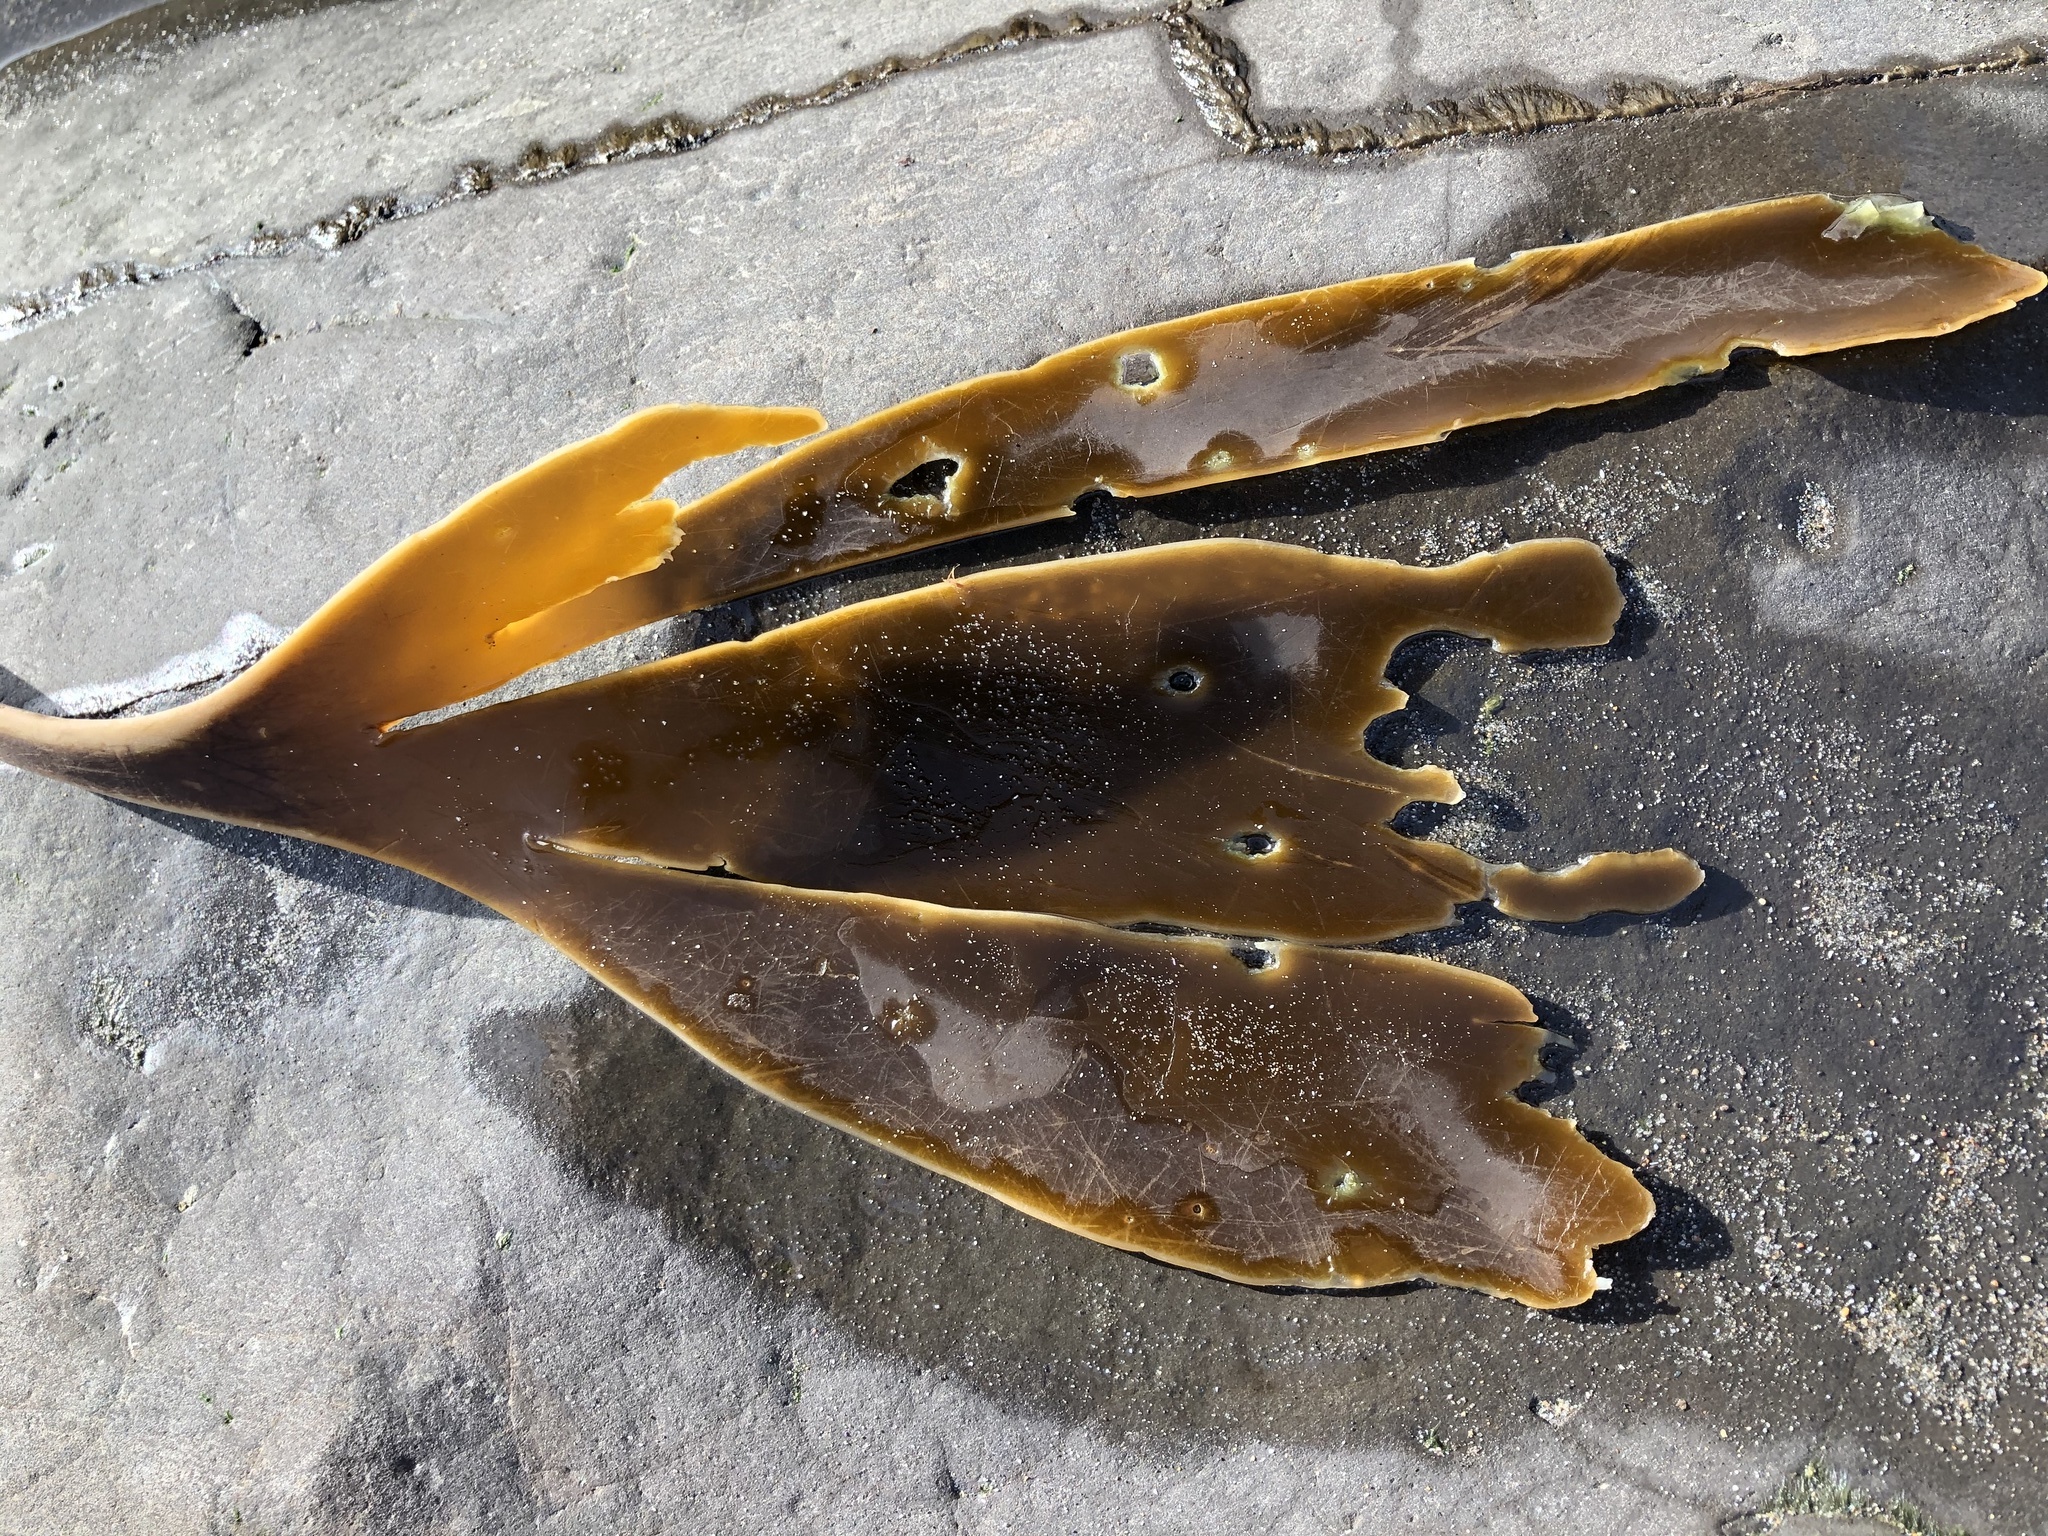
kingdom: Chromista
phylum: Ochrophyta
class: Phaeophyceae
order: Laminariales
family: Laminariaceae
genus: Laminaria
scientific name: Laminaria setchellii
